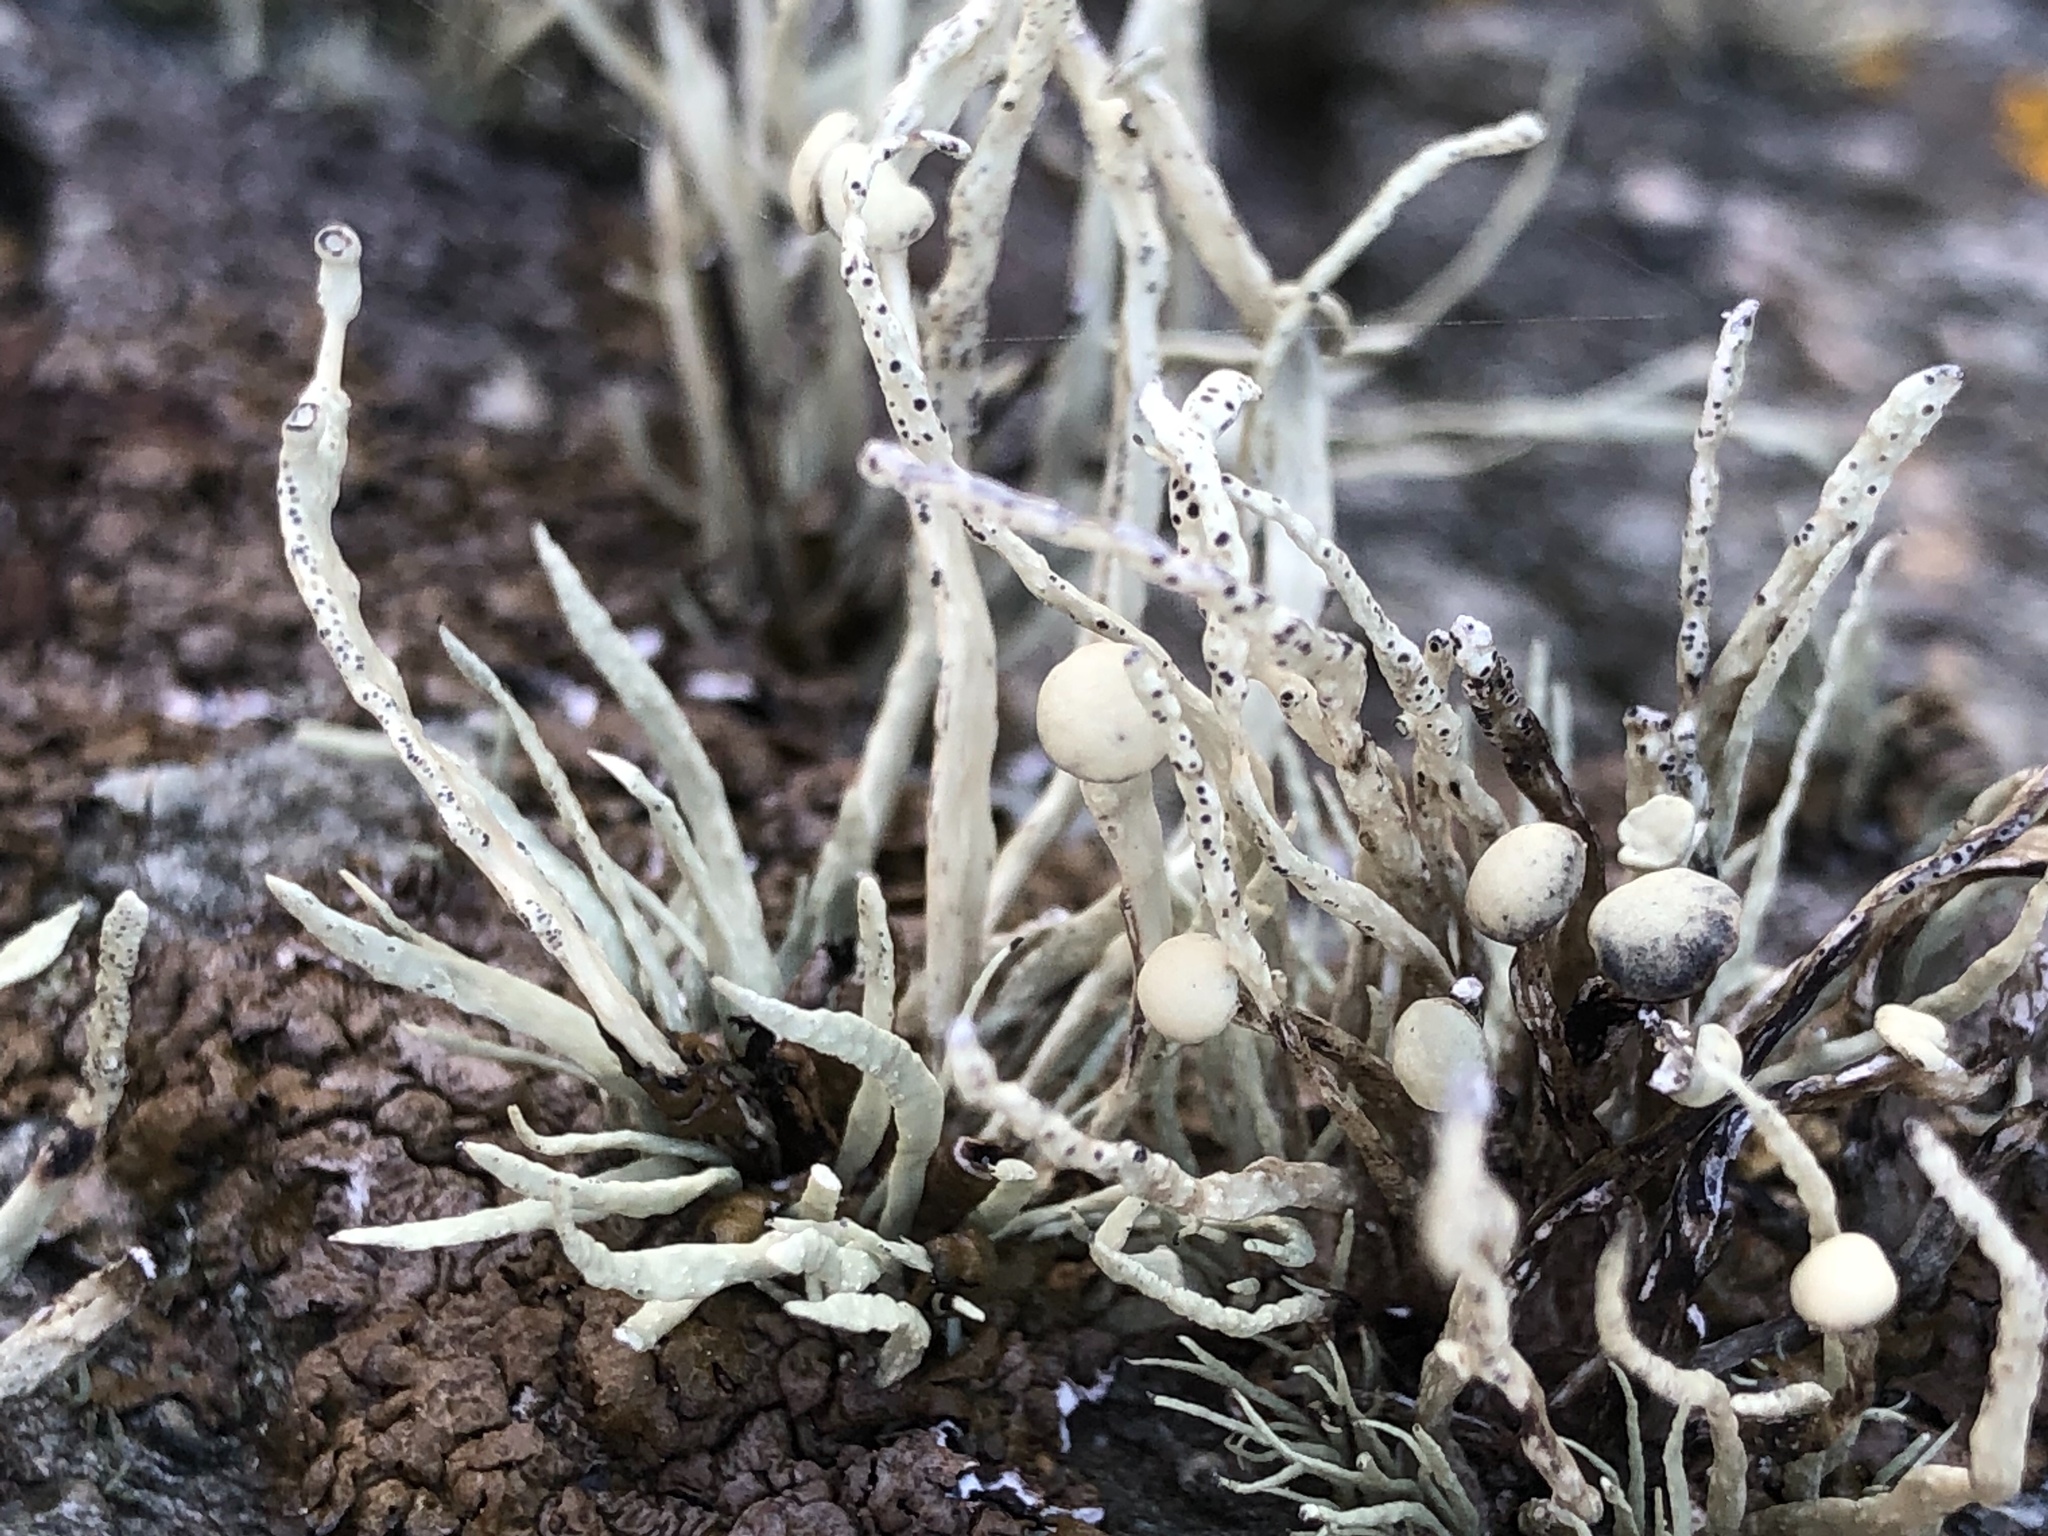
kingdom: Fungi
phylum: Ascomycota
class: Lecanoromycetes
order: Lecanorales
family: Ramalinaceae
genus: Ramalina
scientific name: Ramalina cuspidata
